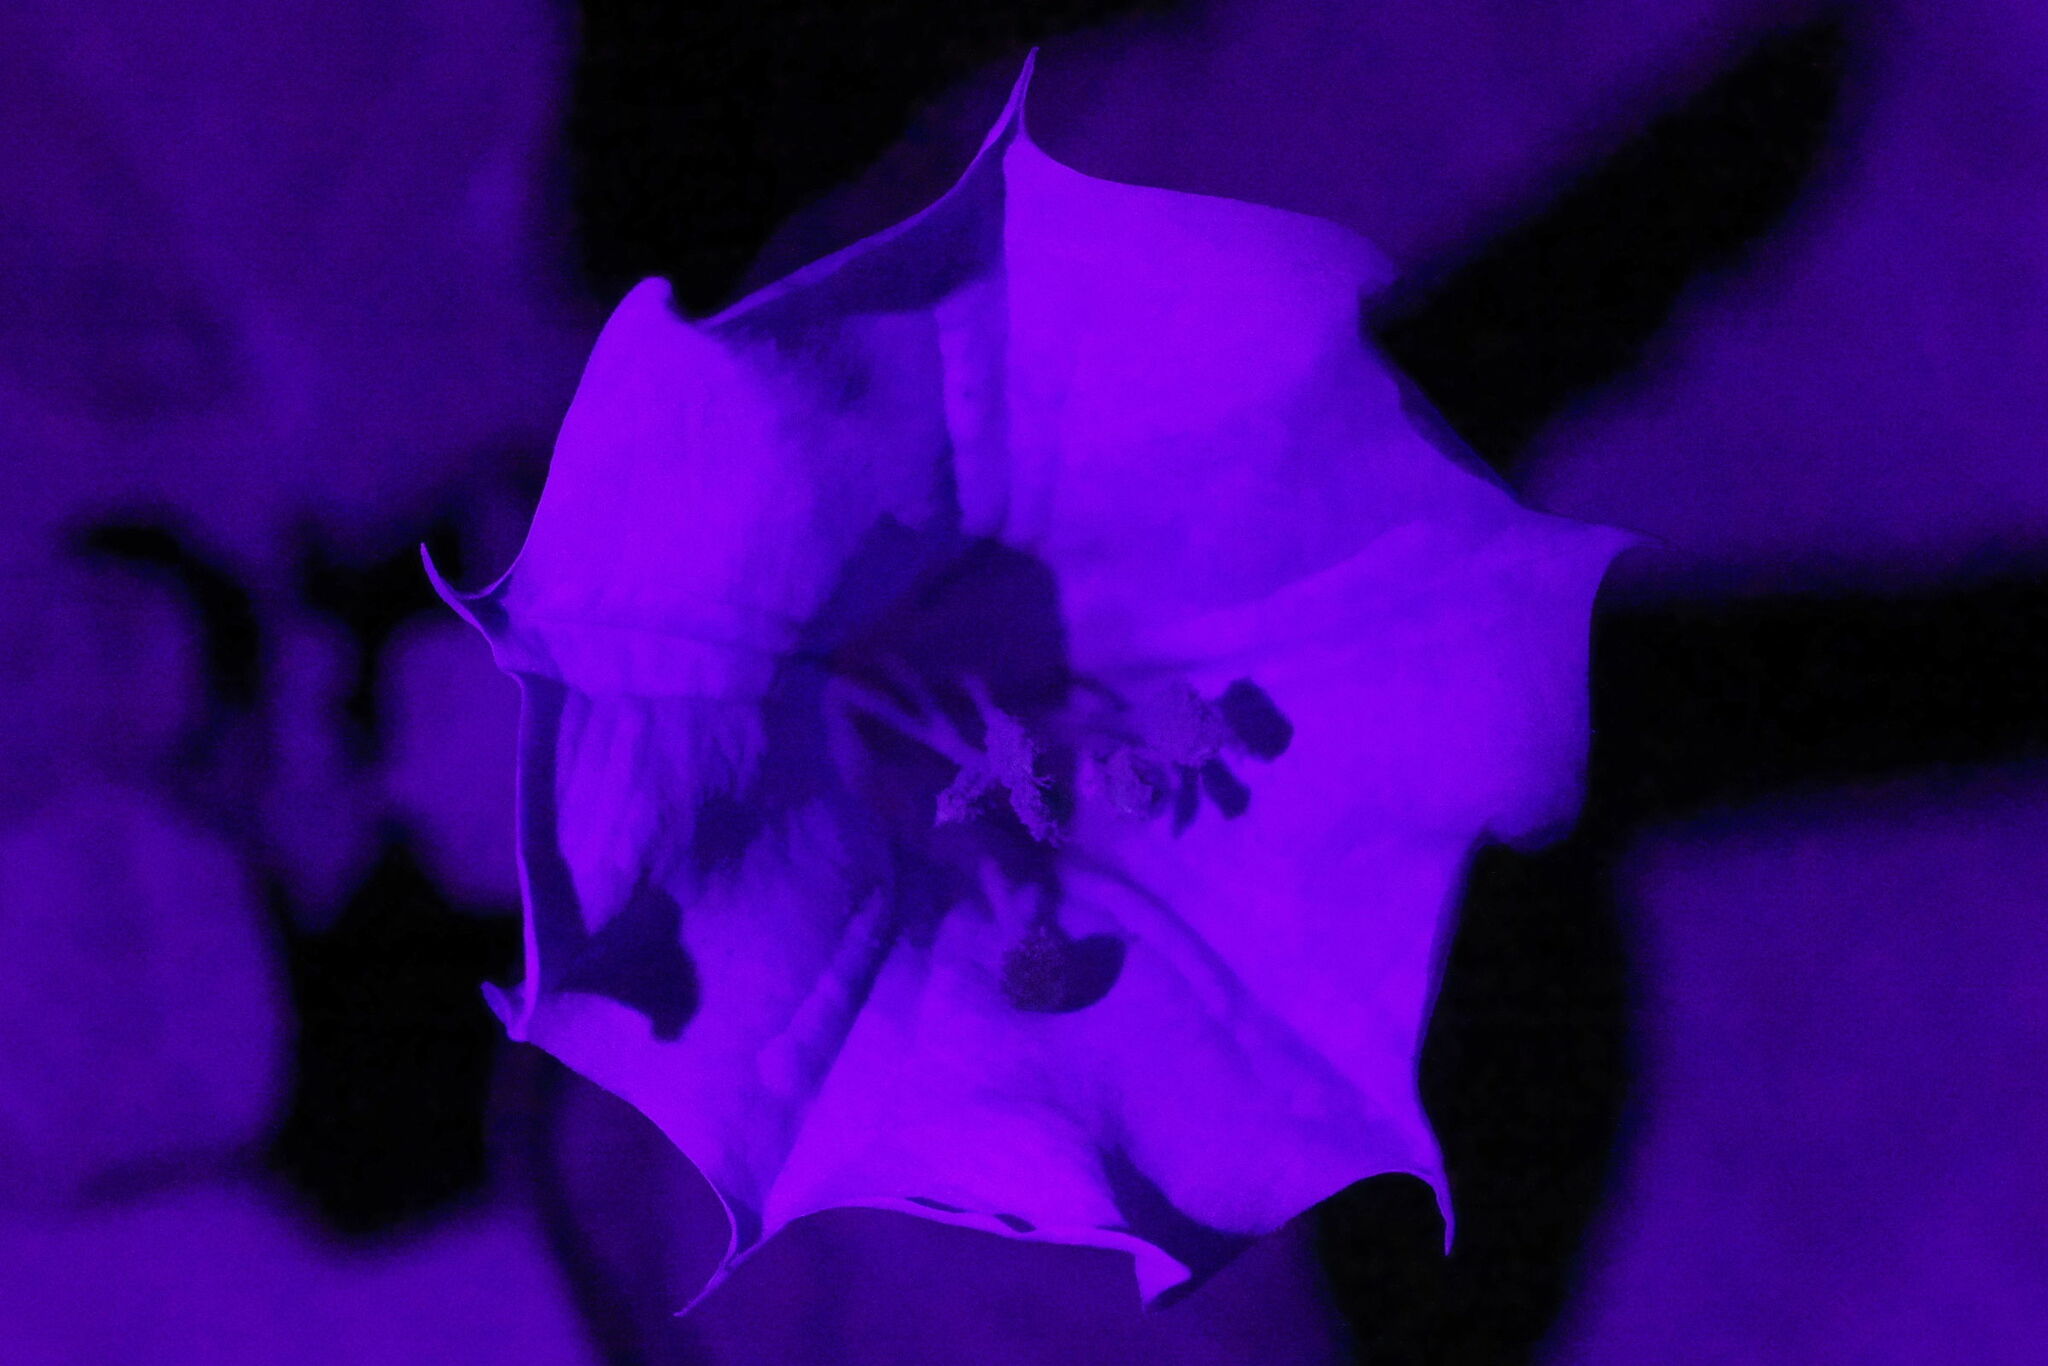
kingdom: Plantae
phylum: Tracheophyta
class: Magnoliopsida
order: Solanales
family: Solanaceae
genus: Datura
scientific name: Datura discolor
